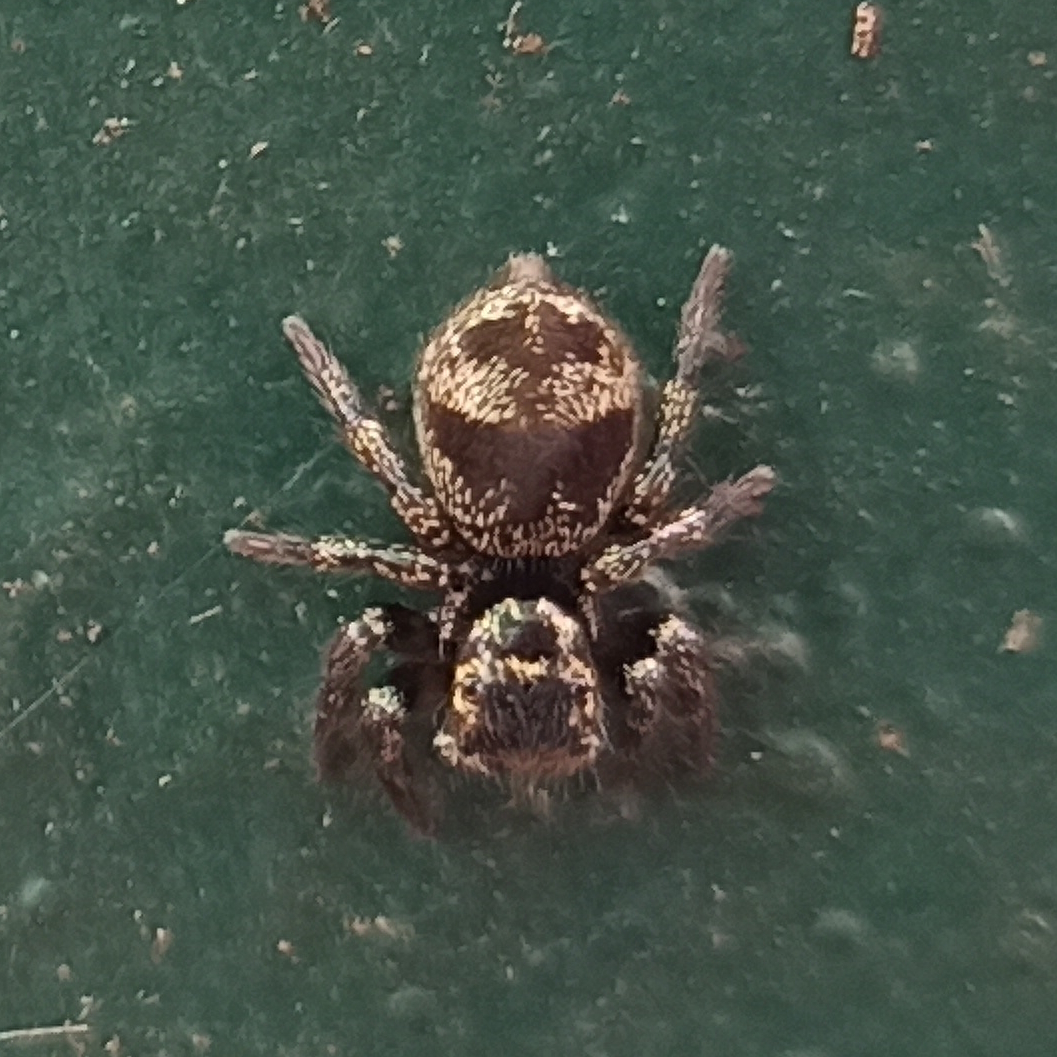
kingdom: Animalia
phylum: Arthropoda
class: Arachnida
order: Araneae
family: Salticidae
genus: Corythalia
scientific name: Corythalia conferta
